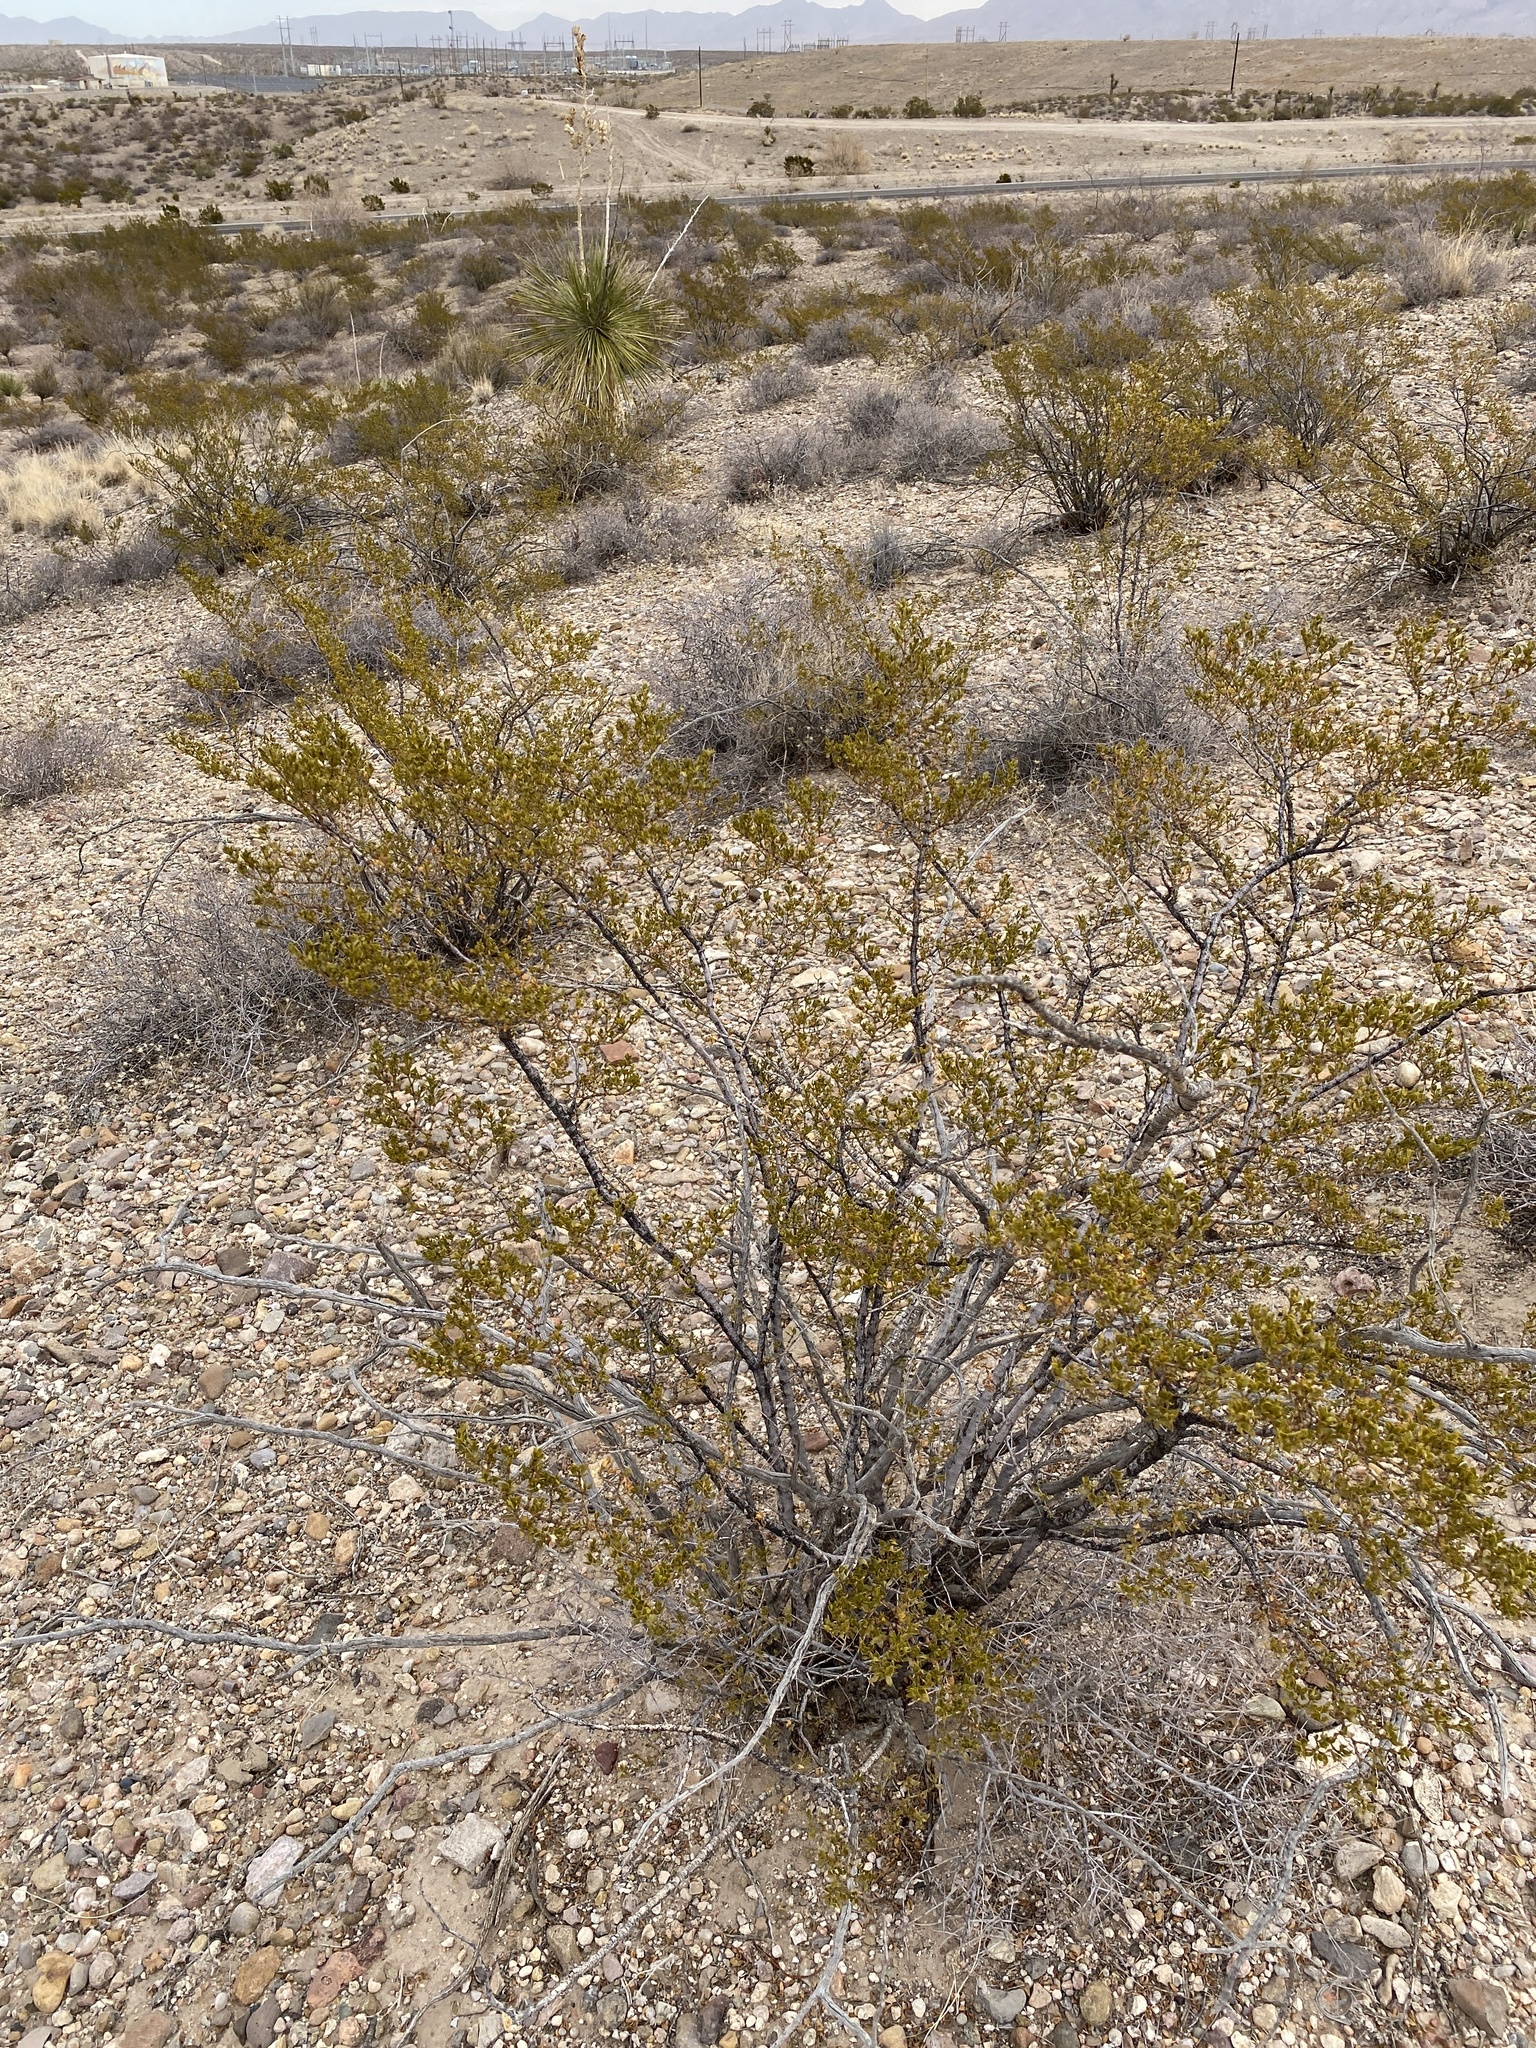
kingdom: Plantae
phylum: Tracheophyta
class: Magnoliopsida
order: Zygophyllales
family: Zygophyllaceae
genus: Larrea
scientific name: Larrea tridentata
